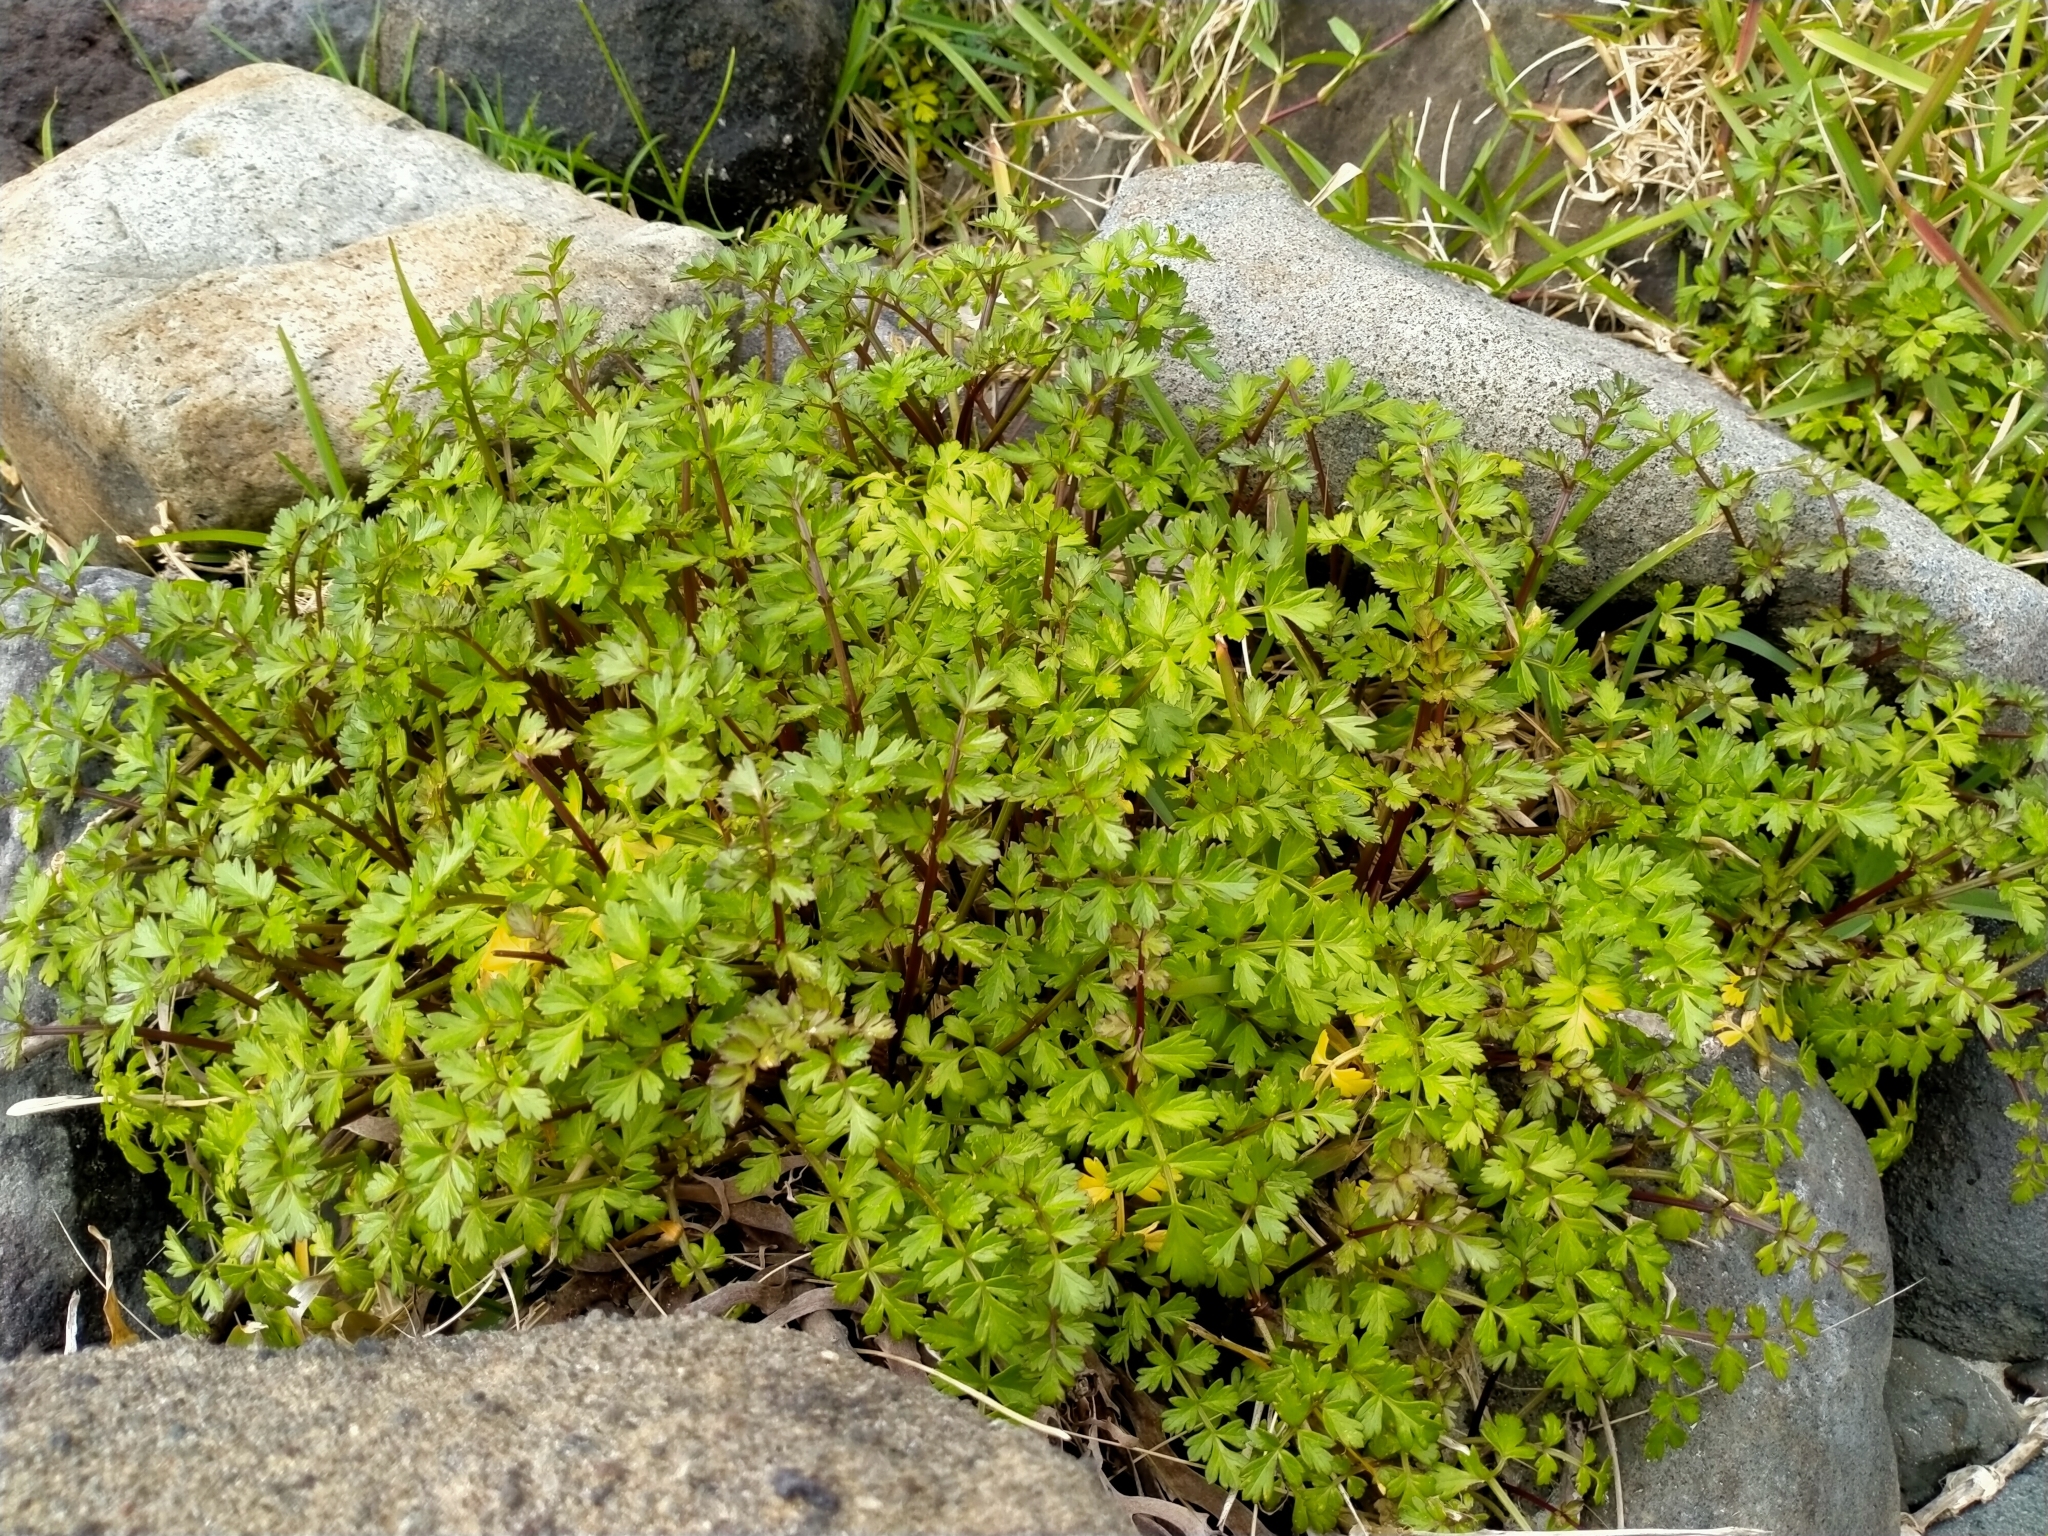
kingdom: Plantae
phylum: Tracheophyta
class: Magnoliopsida
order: Apiales
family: Apiaceae
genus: Apium
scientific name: Apium prostratum
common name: Prostrate marshwort
